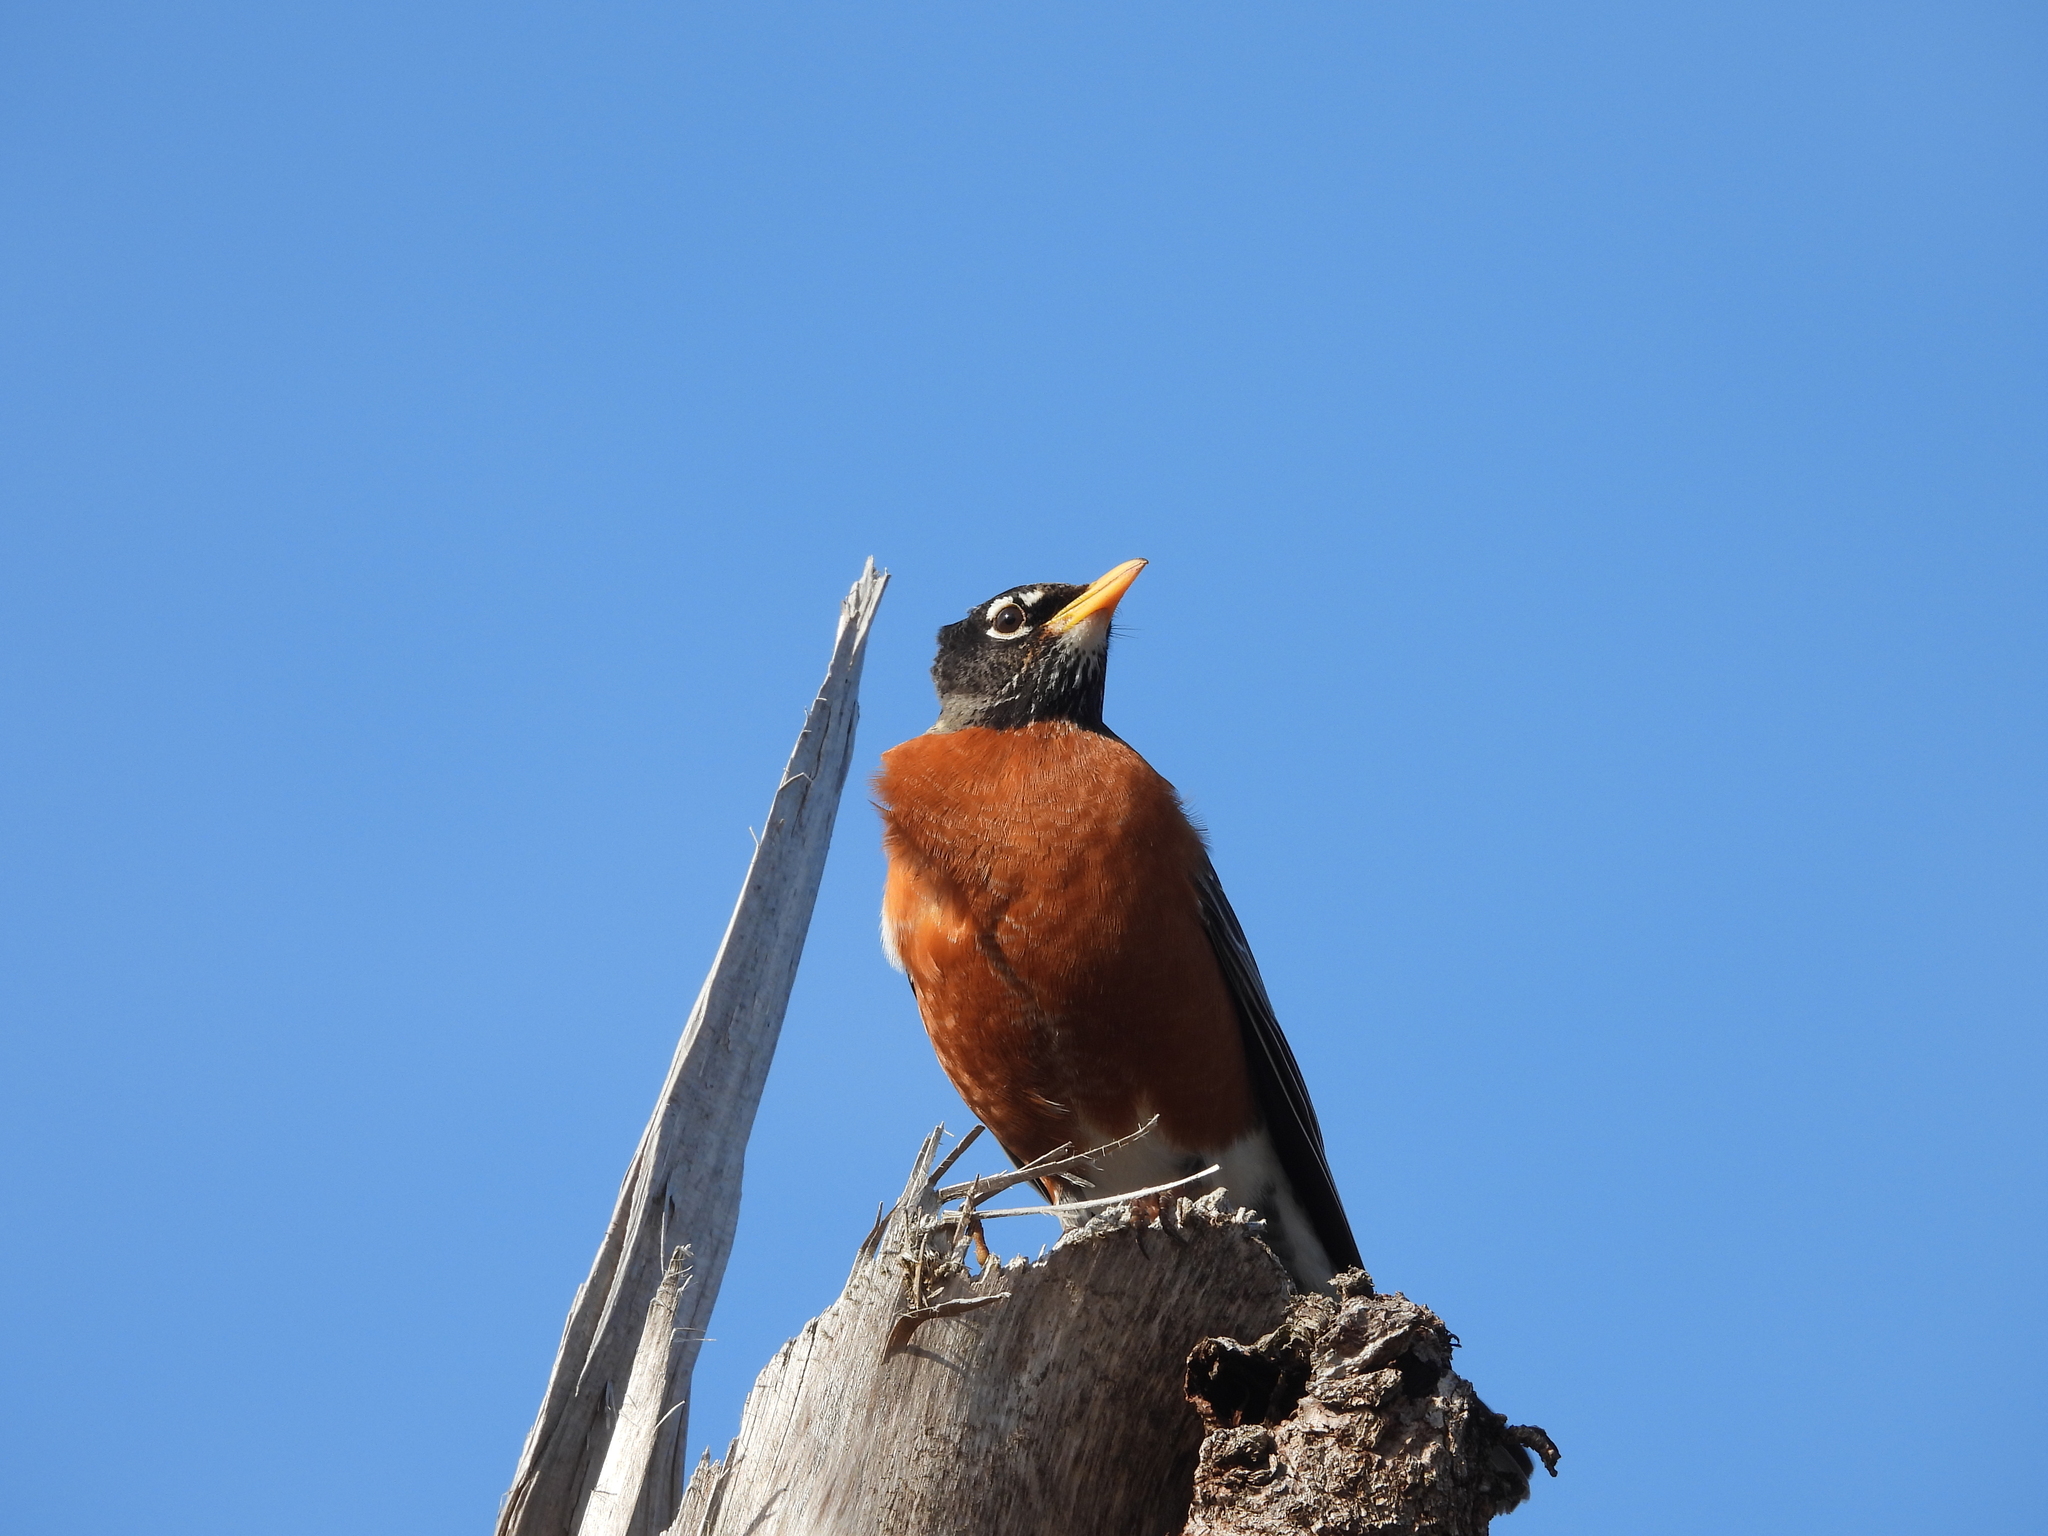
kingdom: Animalia
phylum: Chordata
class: Aves
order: Passeriformes
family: Turdidae
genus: Turdus
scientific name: Turdus migratorius
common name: American robin
